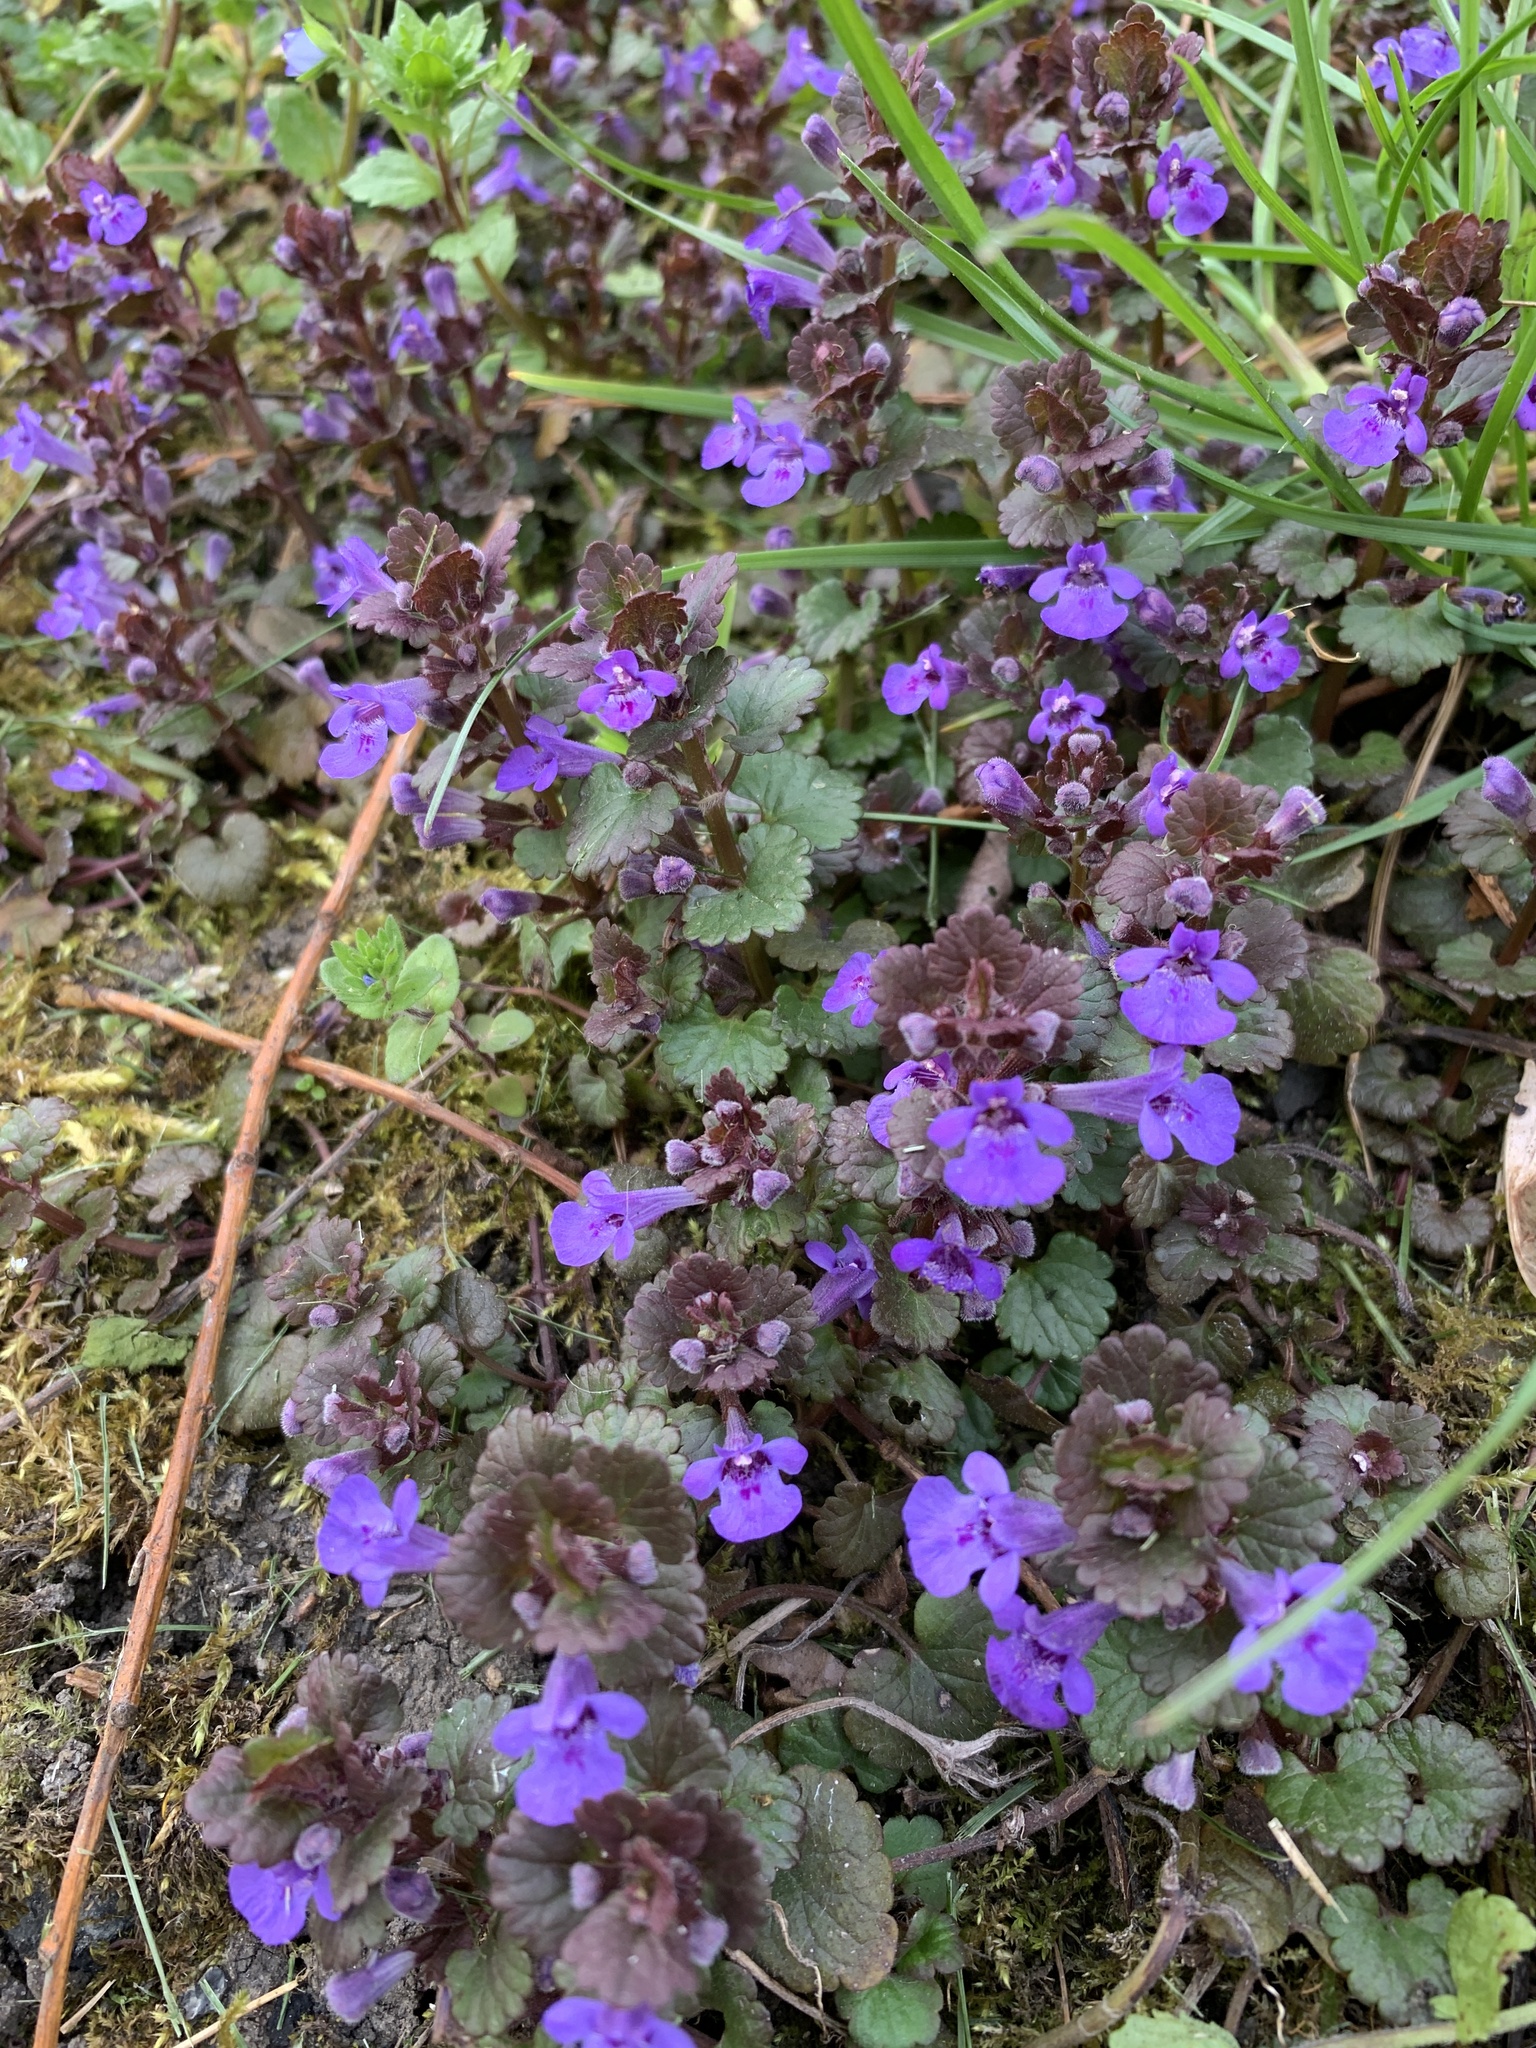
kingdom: Plantae
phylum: Tracheophyta
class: Magnoliopsida
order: Lamiales
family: Lamiaceae
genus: Glechoma
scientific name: Glechoma hederacea
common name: Ground ivy
